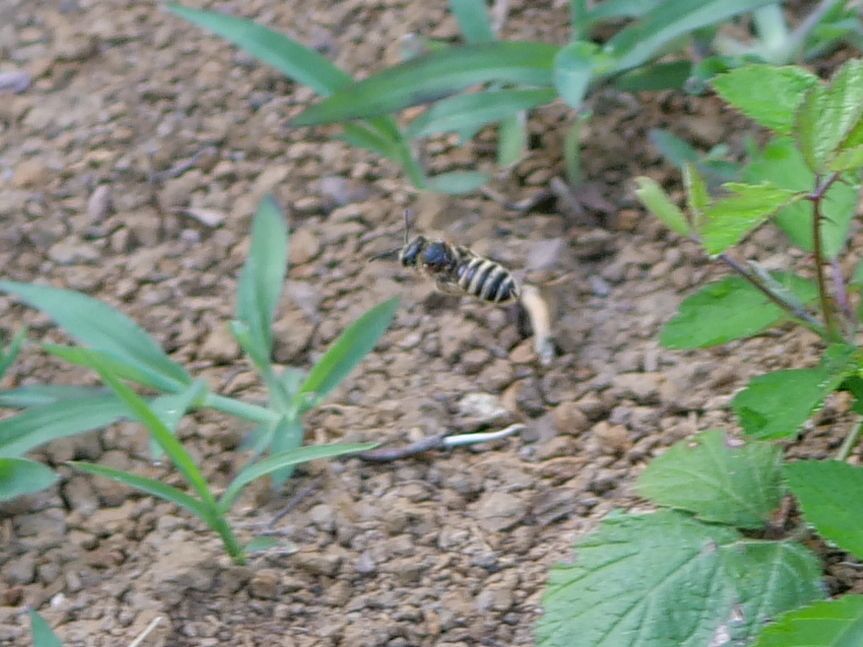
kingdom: Animalia
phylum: Arthropoda
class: Insecta
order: Hymenoptera
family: Halictidae
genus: Halictus
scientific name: Halictus scabiosae
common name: Great banded furrow bee
